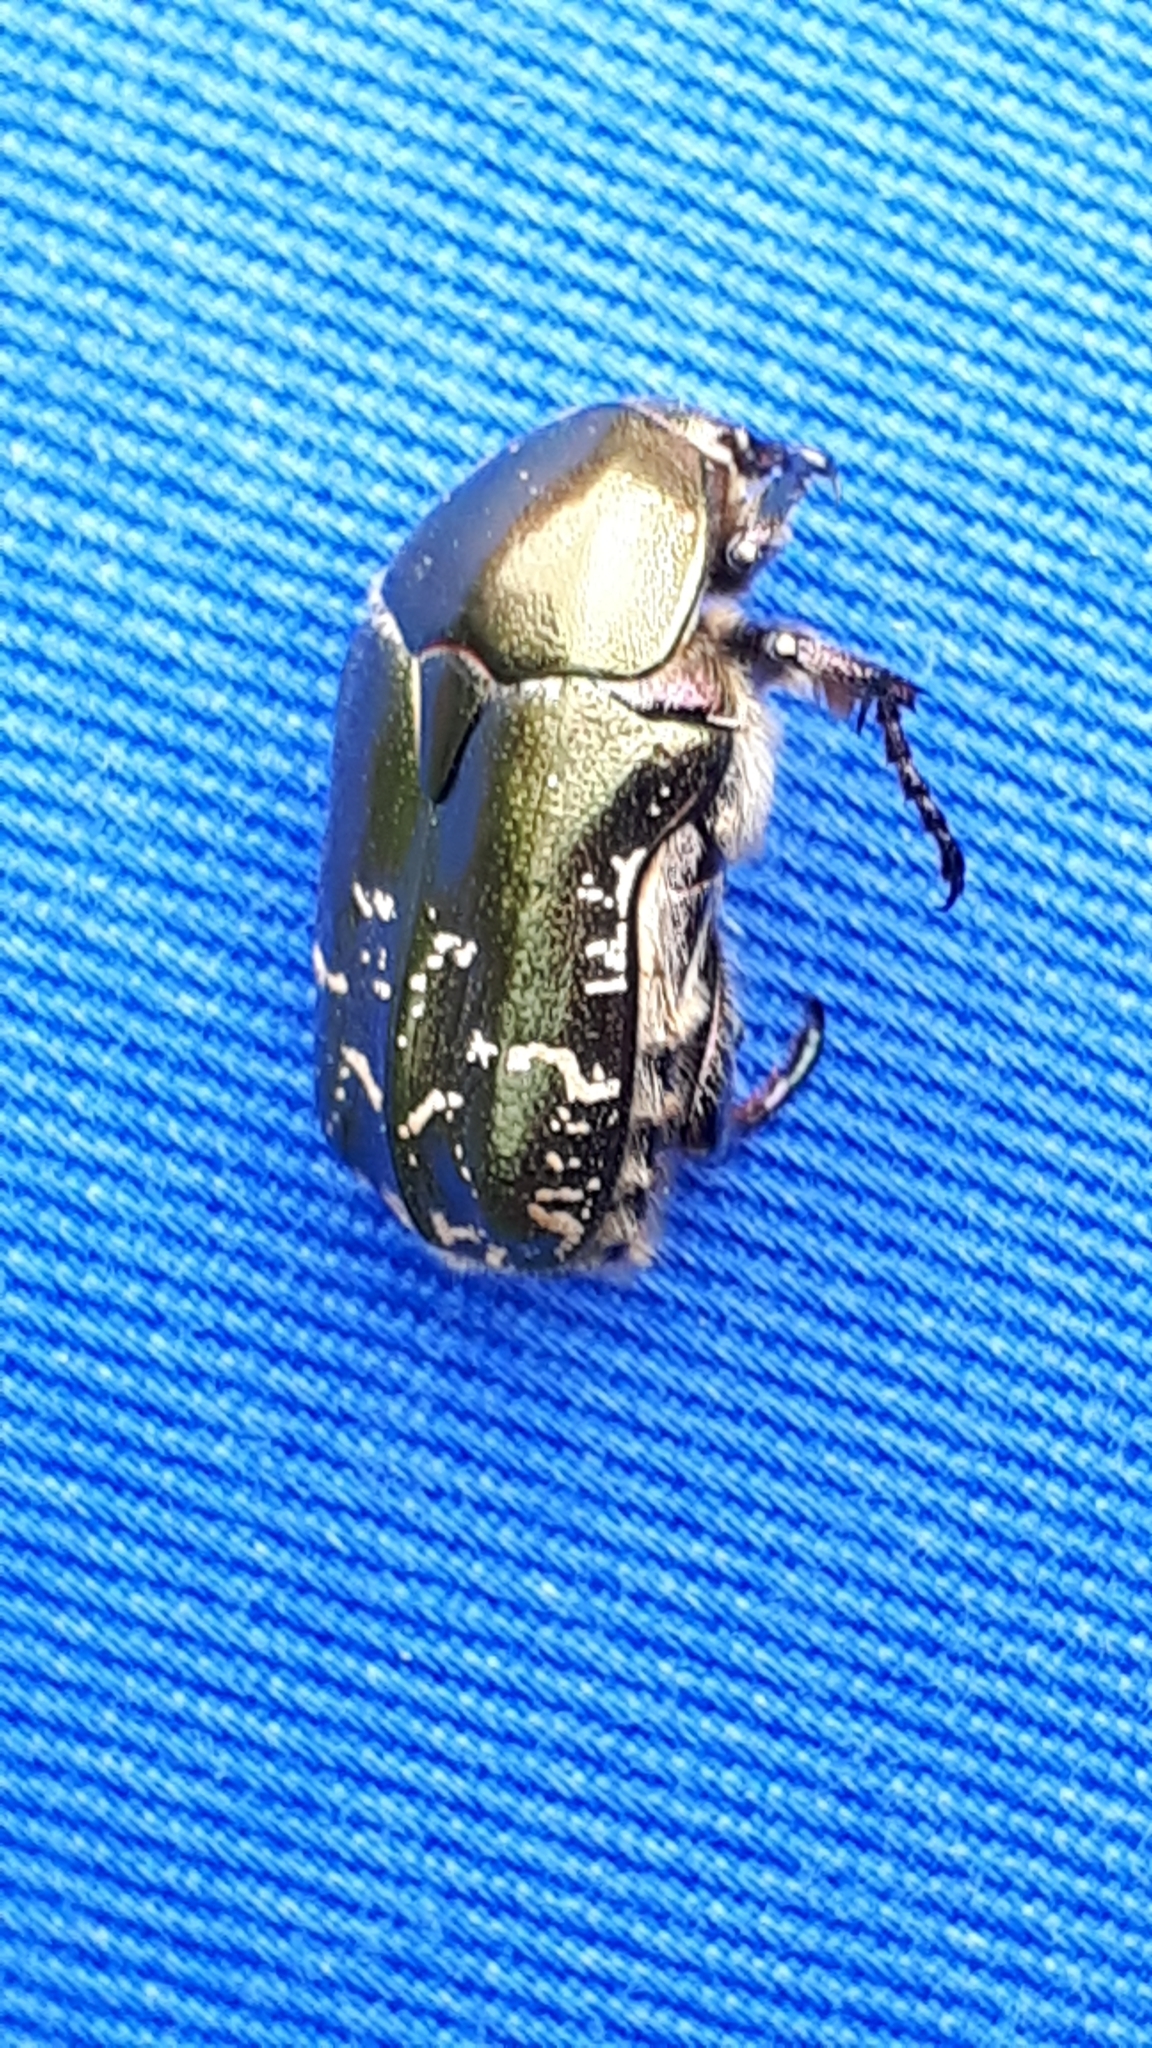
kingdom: Animalia
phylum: Arthropoda
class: Insecta
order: Coleoptera
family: Scarabaeidae
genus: Protaetia
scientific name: Protaetia cuprea
